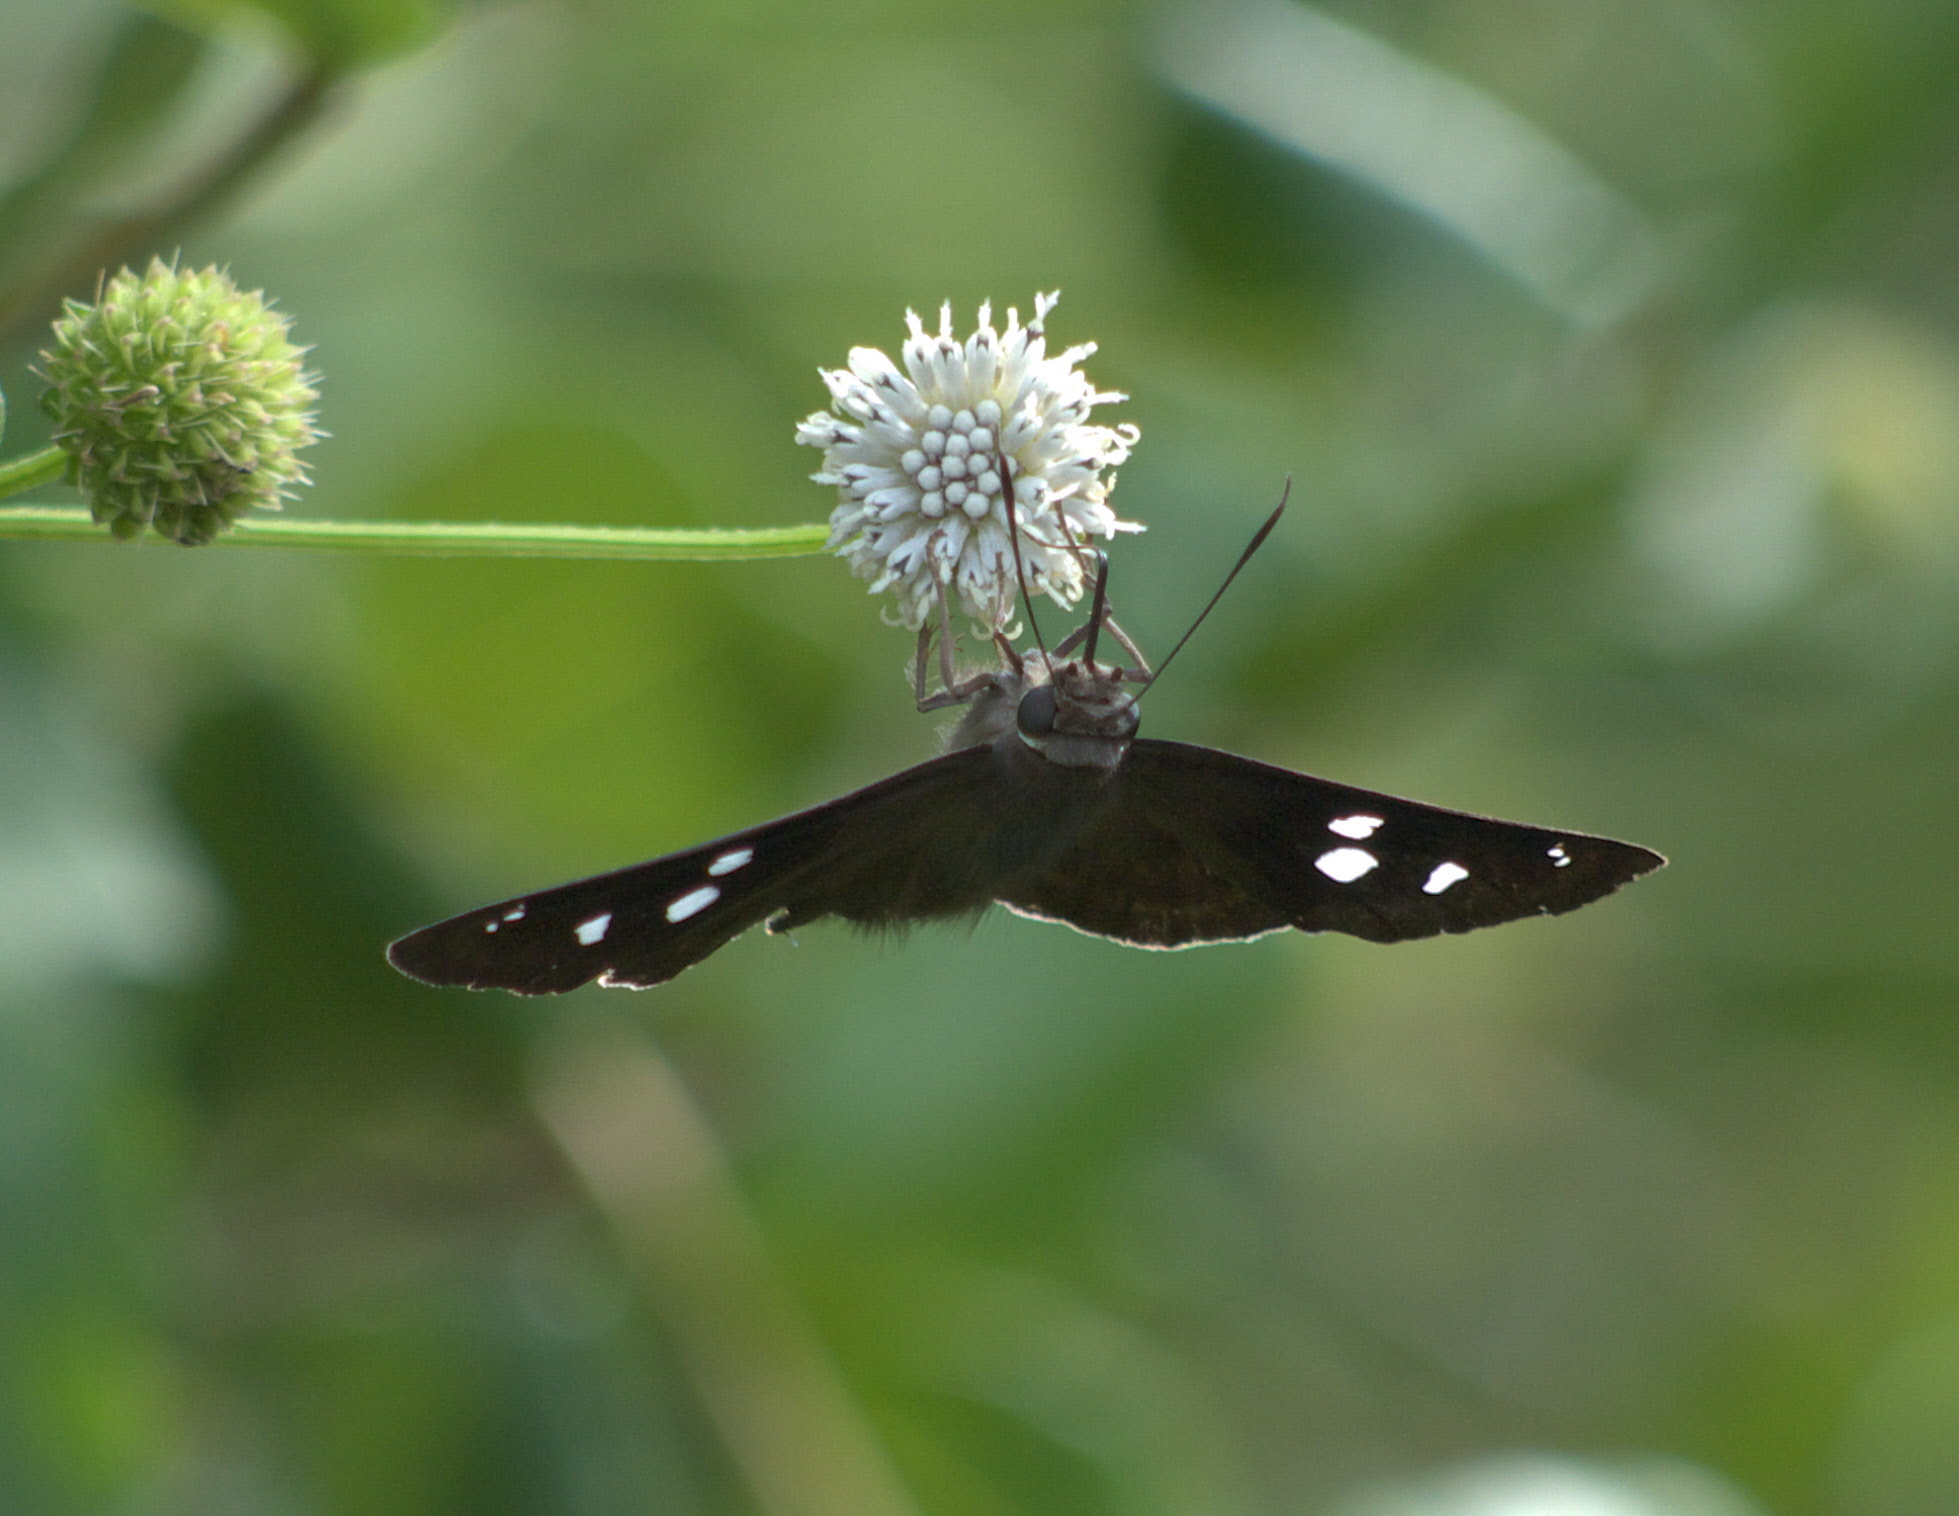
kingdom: Animalia
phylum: Arthropoda
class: Insecta
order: Lepidoptera
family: Hesperiidae
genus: Polygonus
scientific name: Polygonus leo
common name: Hammoch skipper
